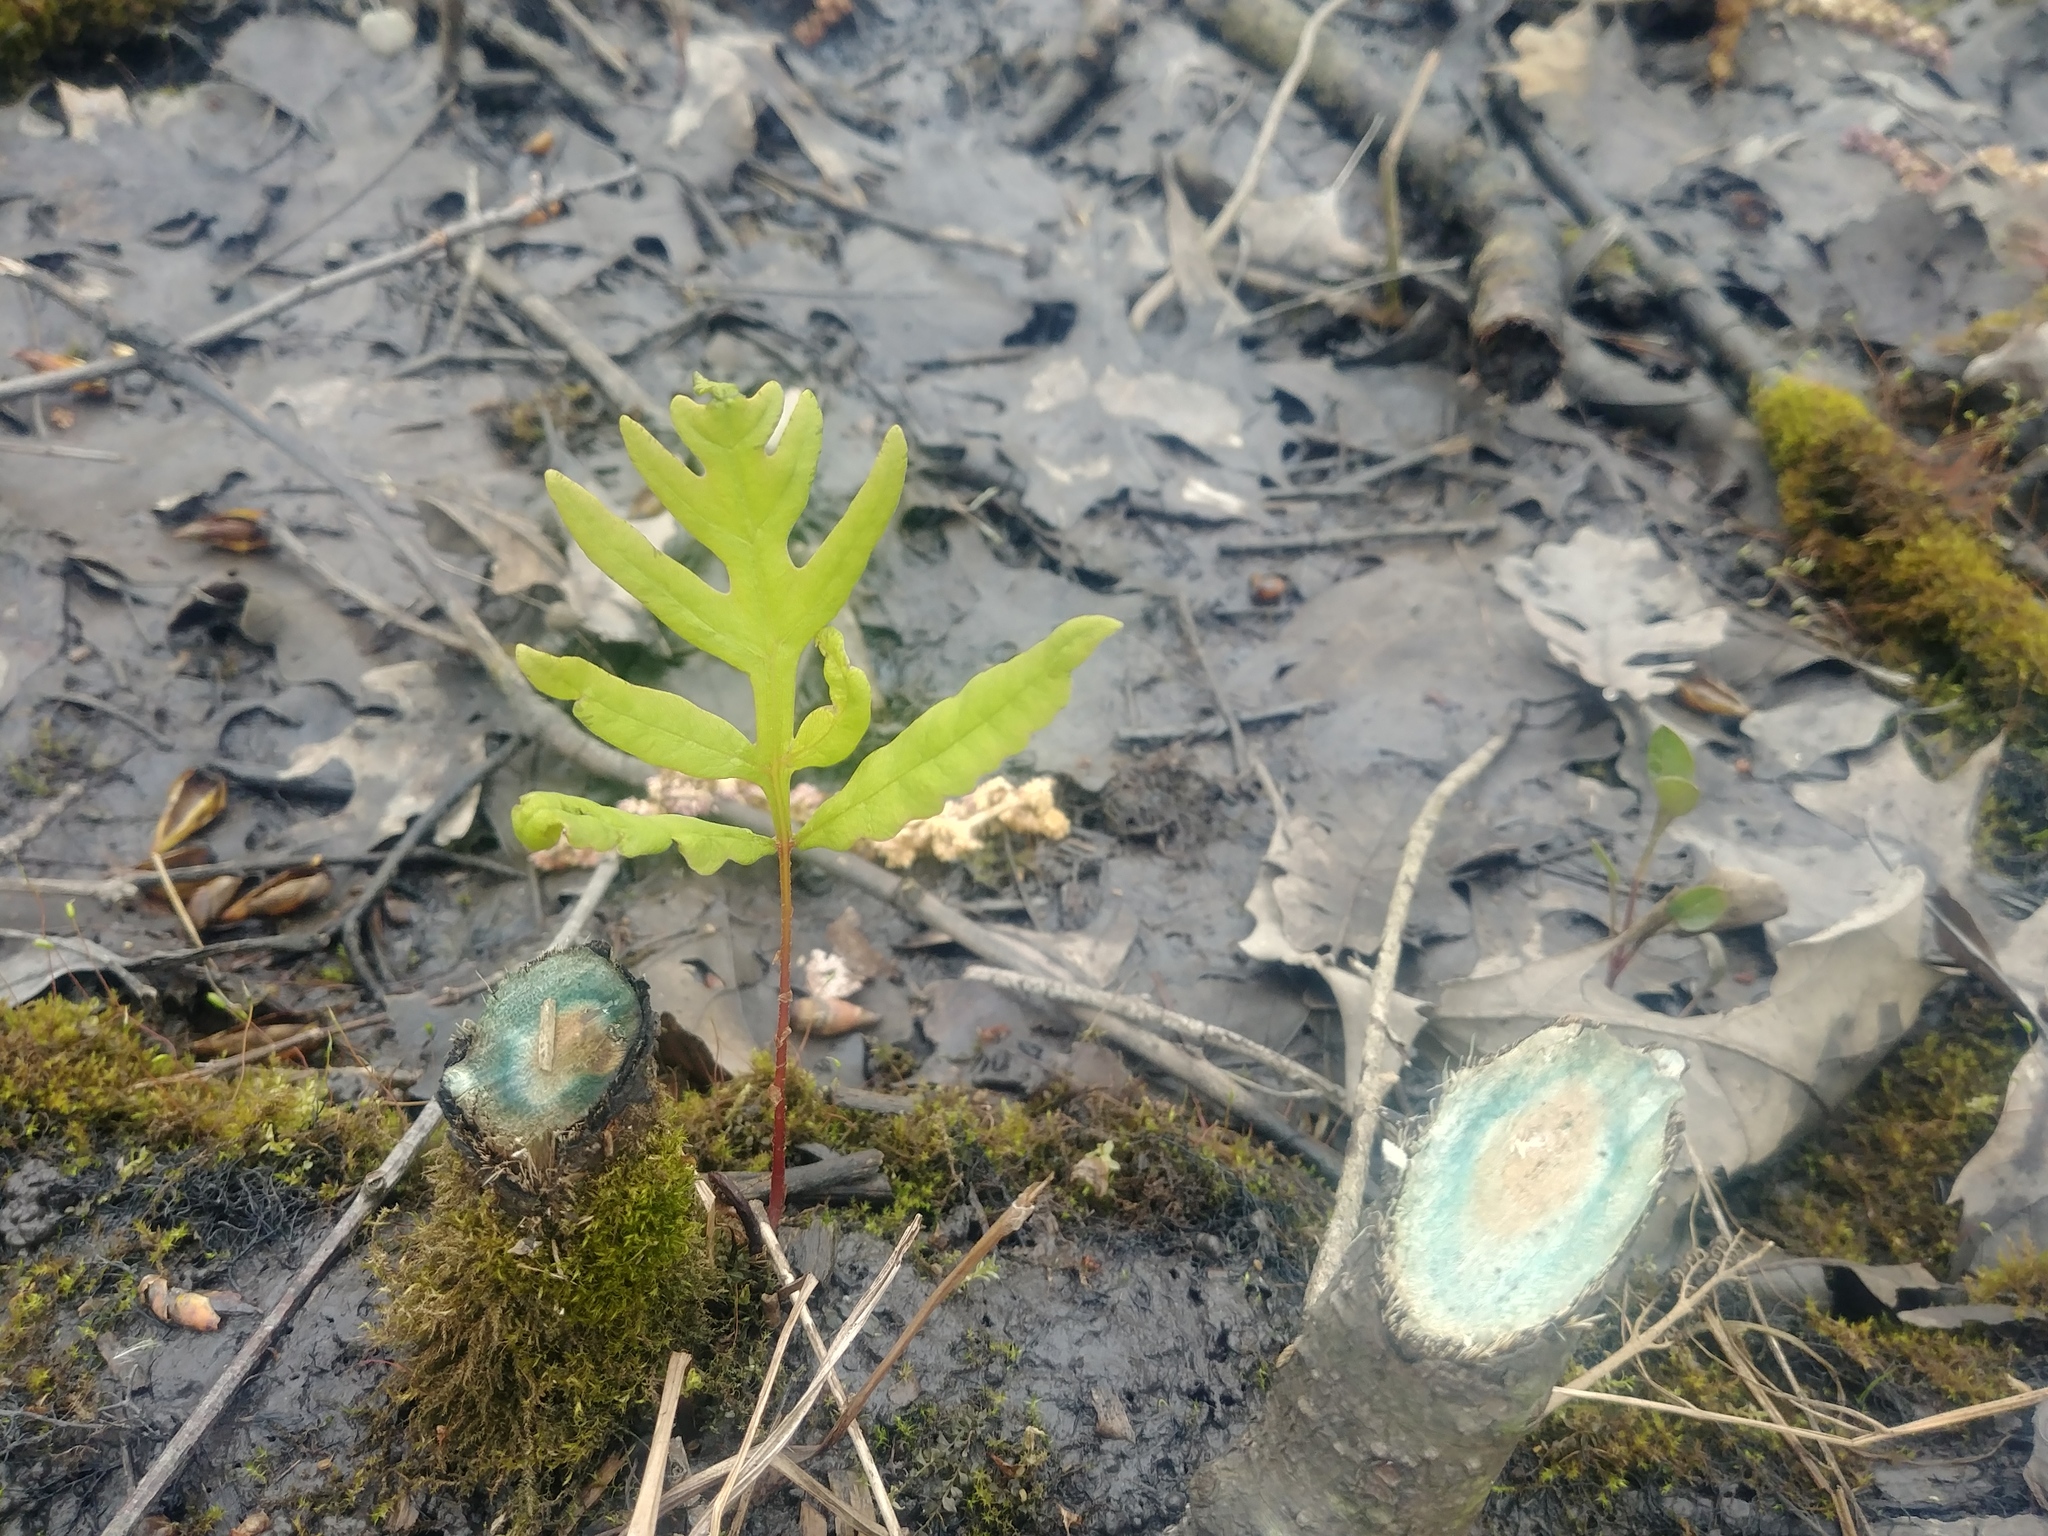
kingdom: Plantae
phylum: Tracheophyta
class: Polypodiopsida
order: Polypodiales
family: Onocleaceae
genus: Onoclea
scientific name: Onoclea sensibilis
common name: Sensitive fern
